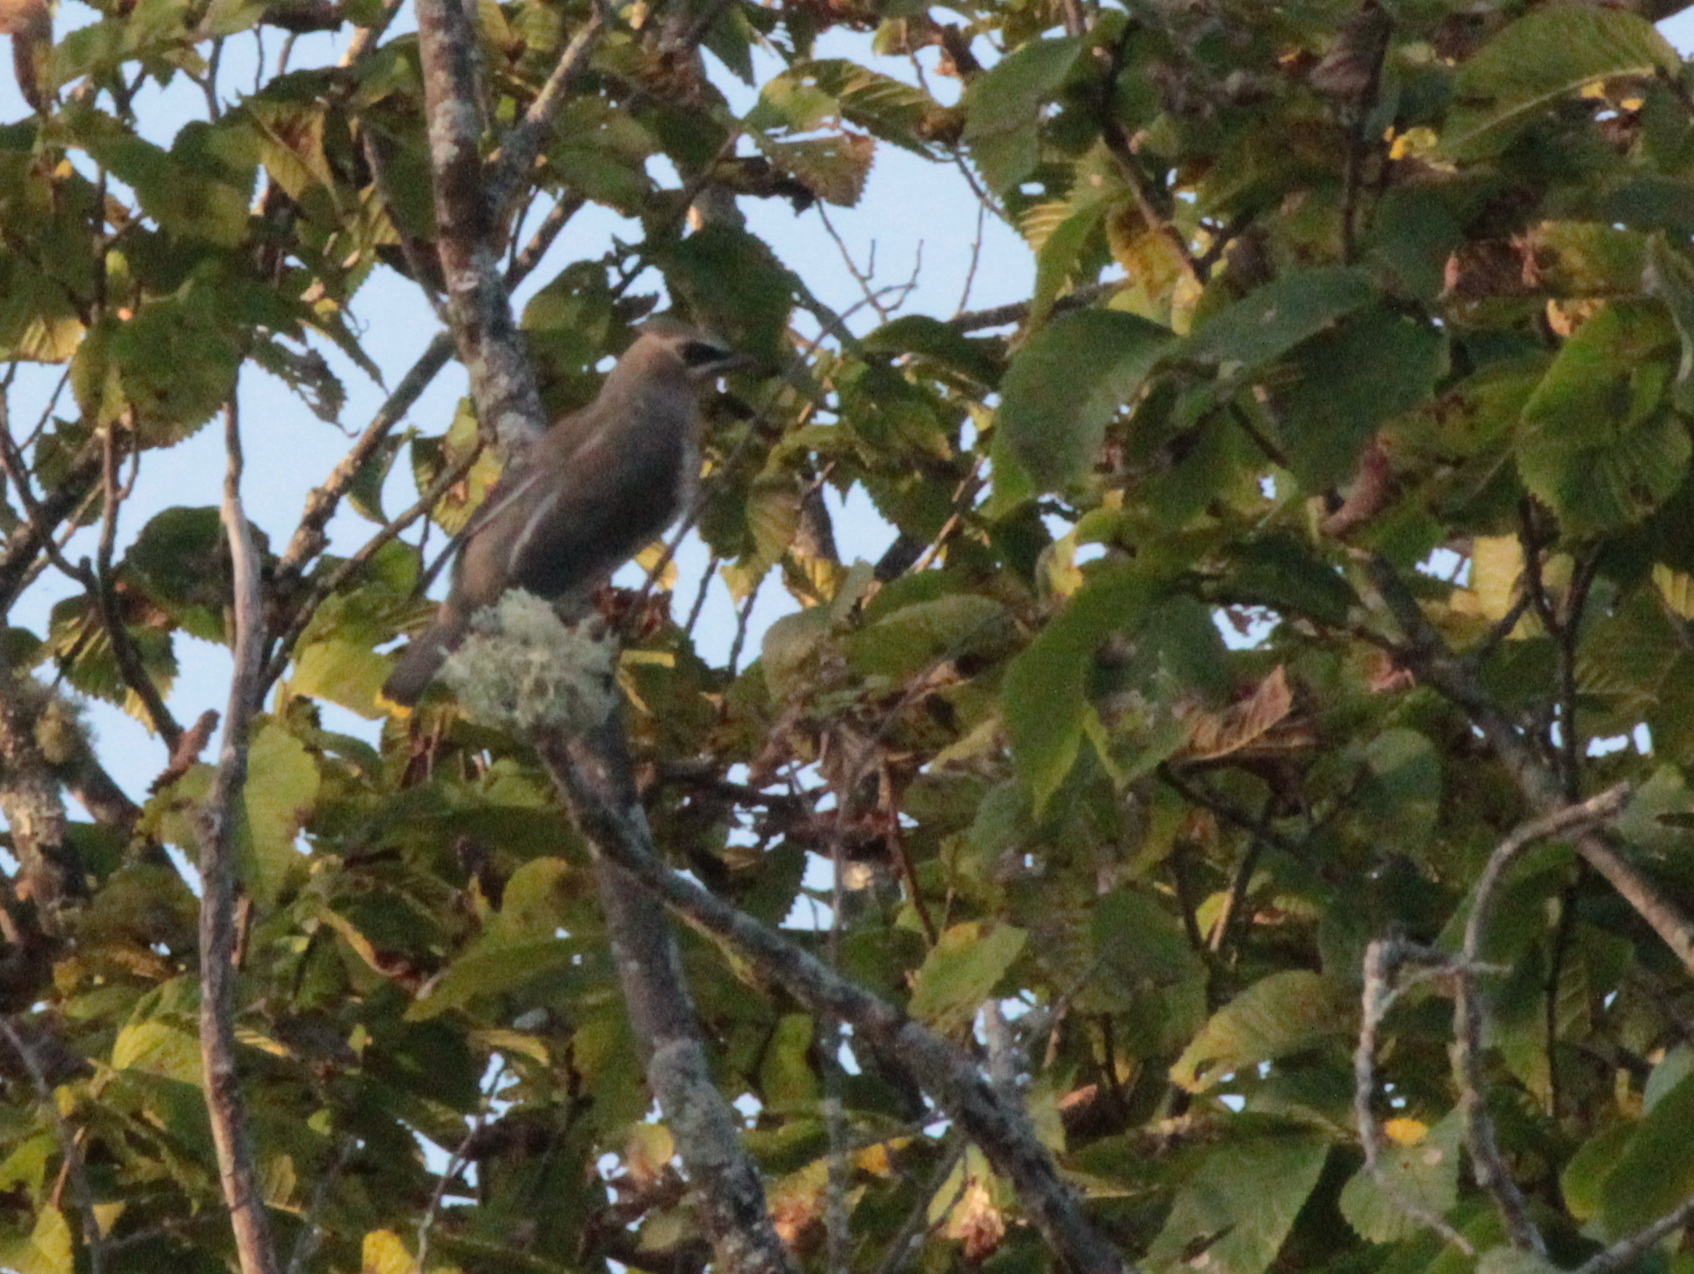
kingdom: Animalia
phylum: Chordata
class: Aves
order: Passeriformes
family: Bombycillidae
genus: Bombycilla
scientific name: Bombycilla cedrorum
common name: Cedar waxwing
